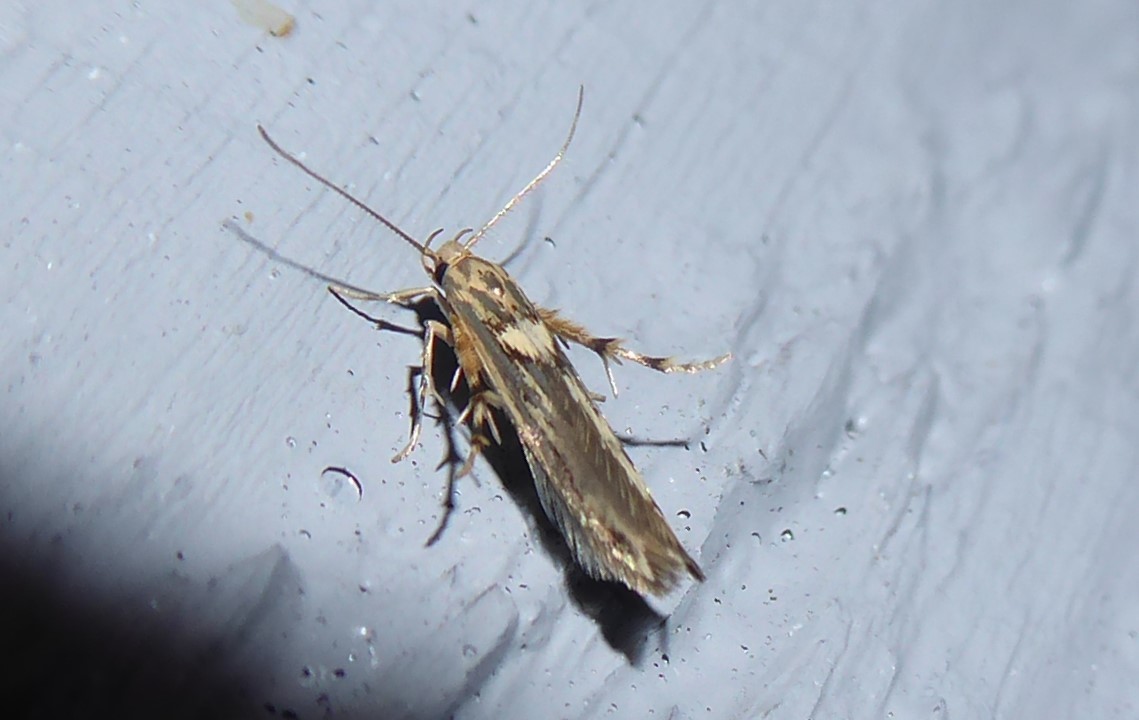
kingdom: Animalia
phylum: Arthropoda
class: Insecta
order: Lepidoptera
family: Stathmopodidae
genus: Stathmopoda
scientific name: Stathmopoda plumbiflua
